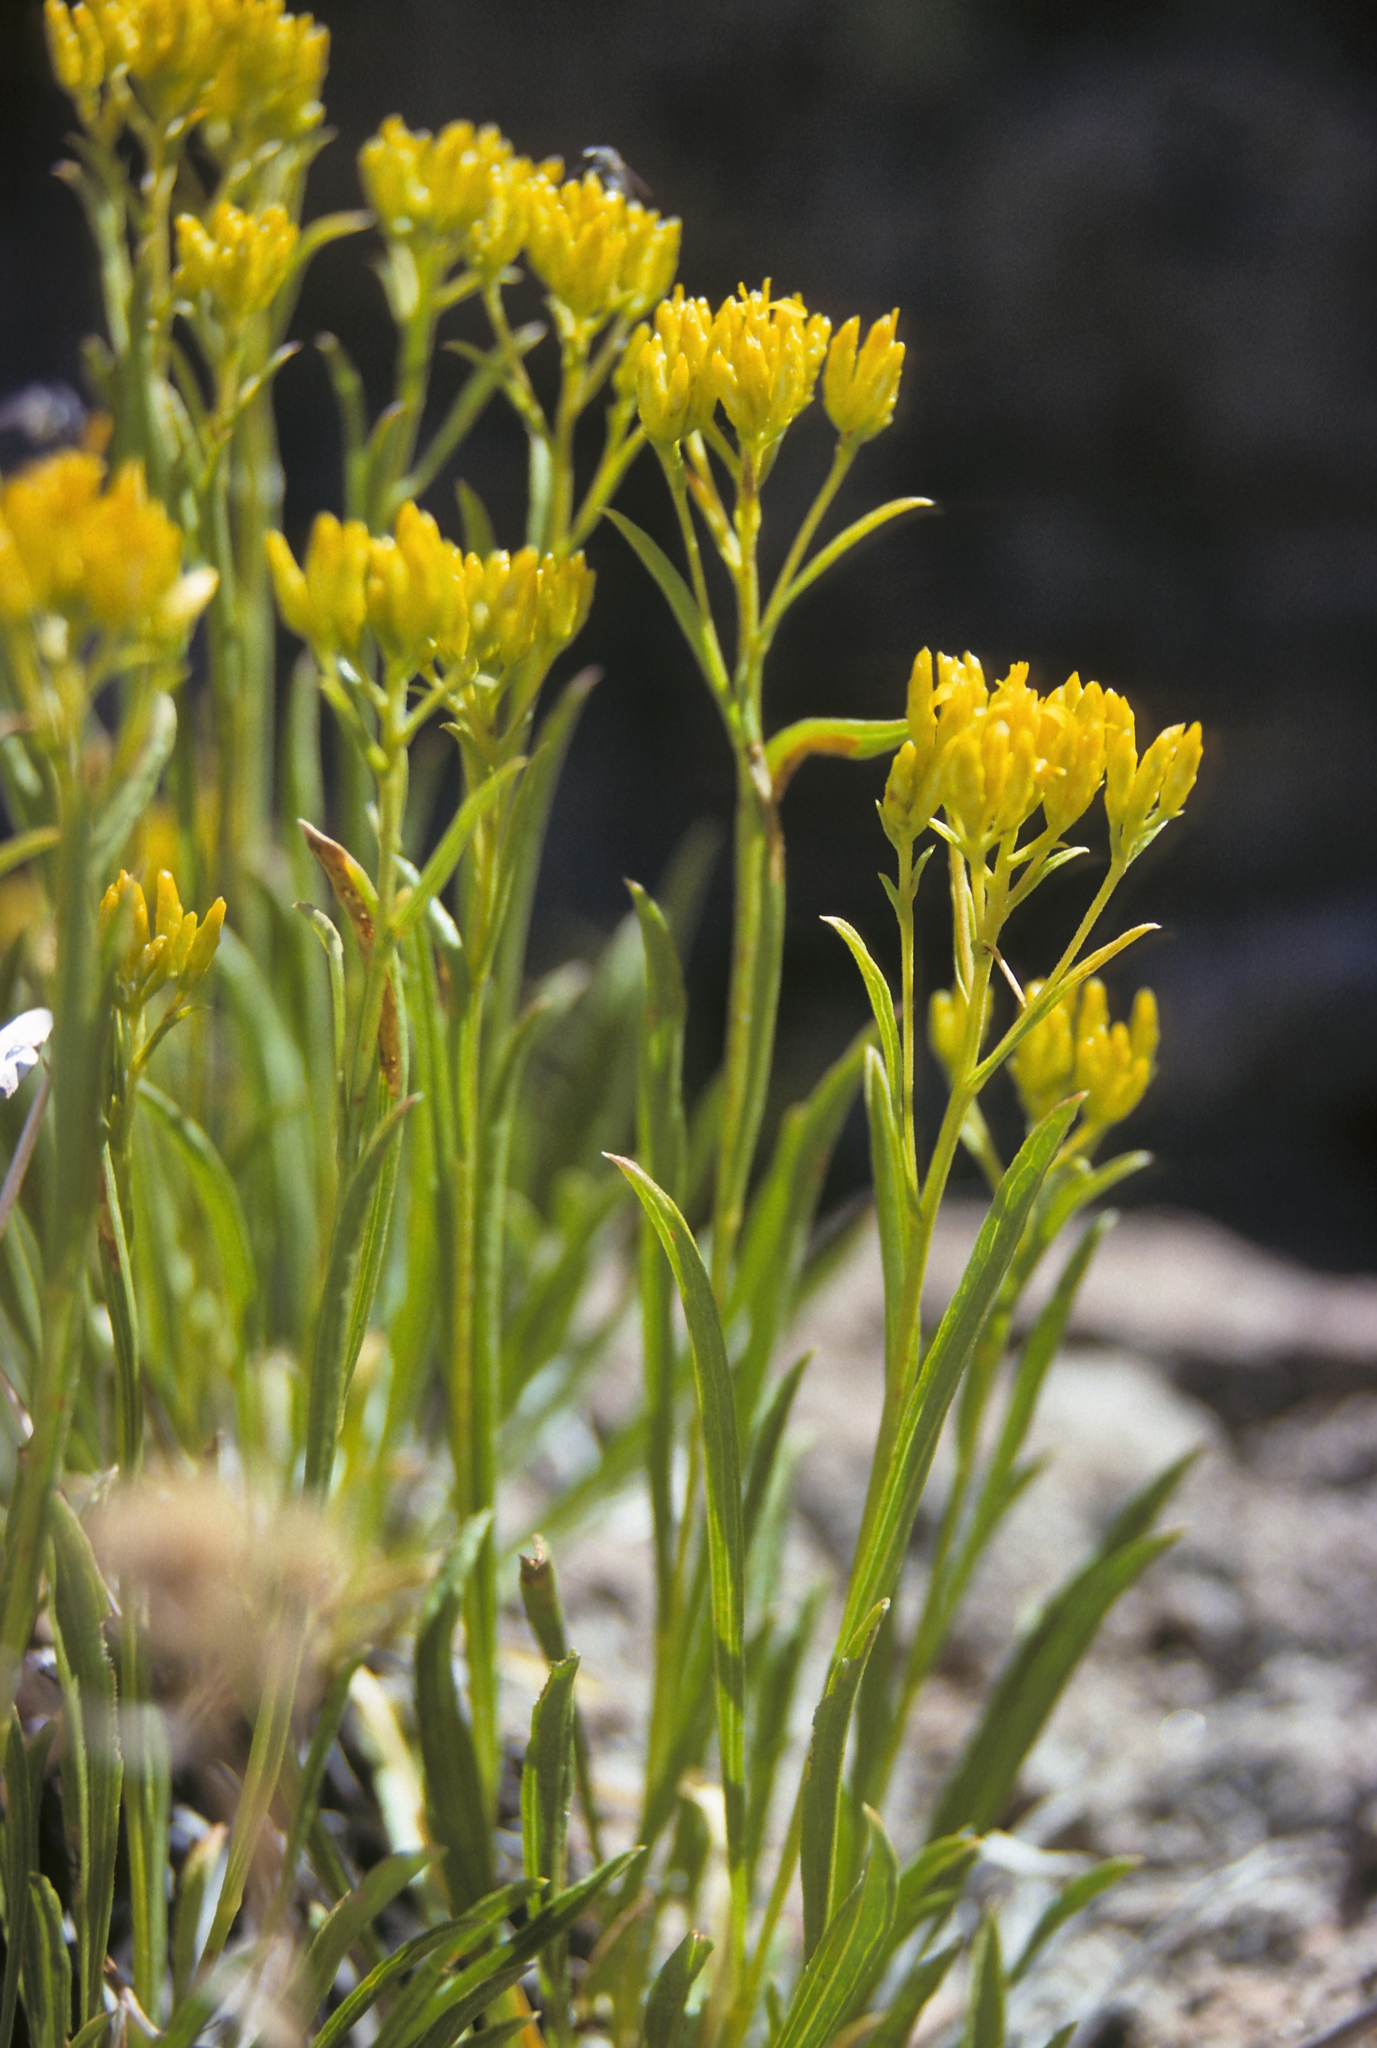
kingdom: Plantae
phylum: Tracheophyta
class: Magnoliopsida
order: Asterales
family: Asteraceae
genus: Petradoria
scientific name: Petradoria pumila
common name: Rock-goldenrod
